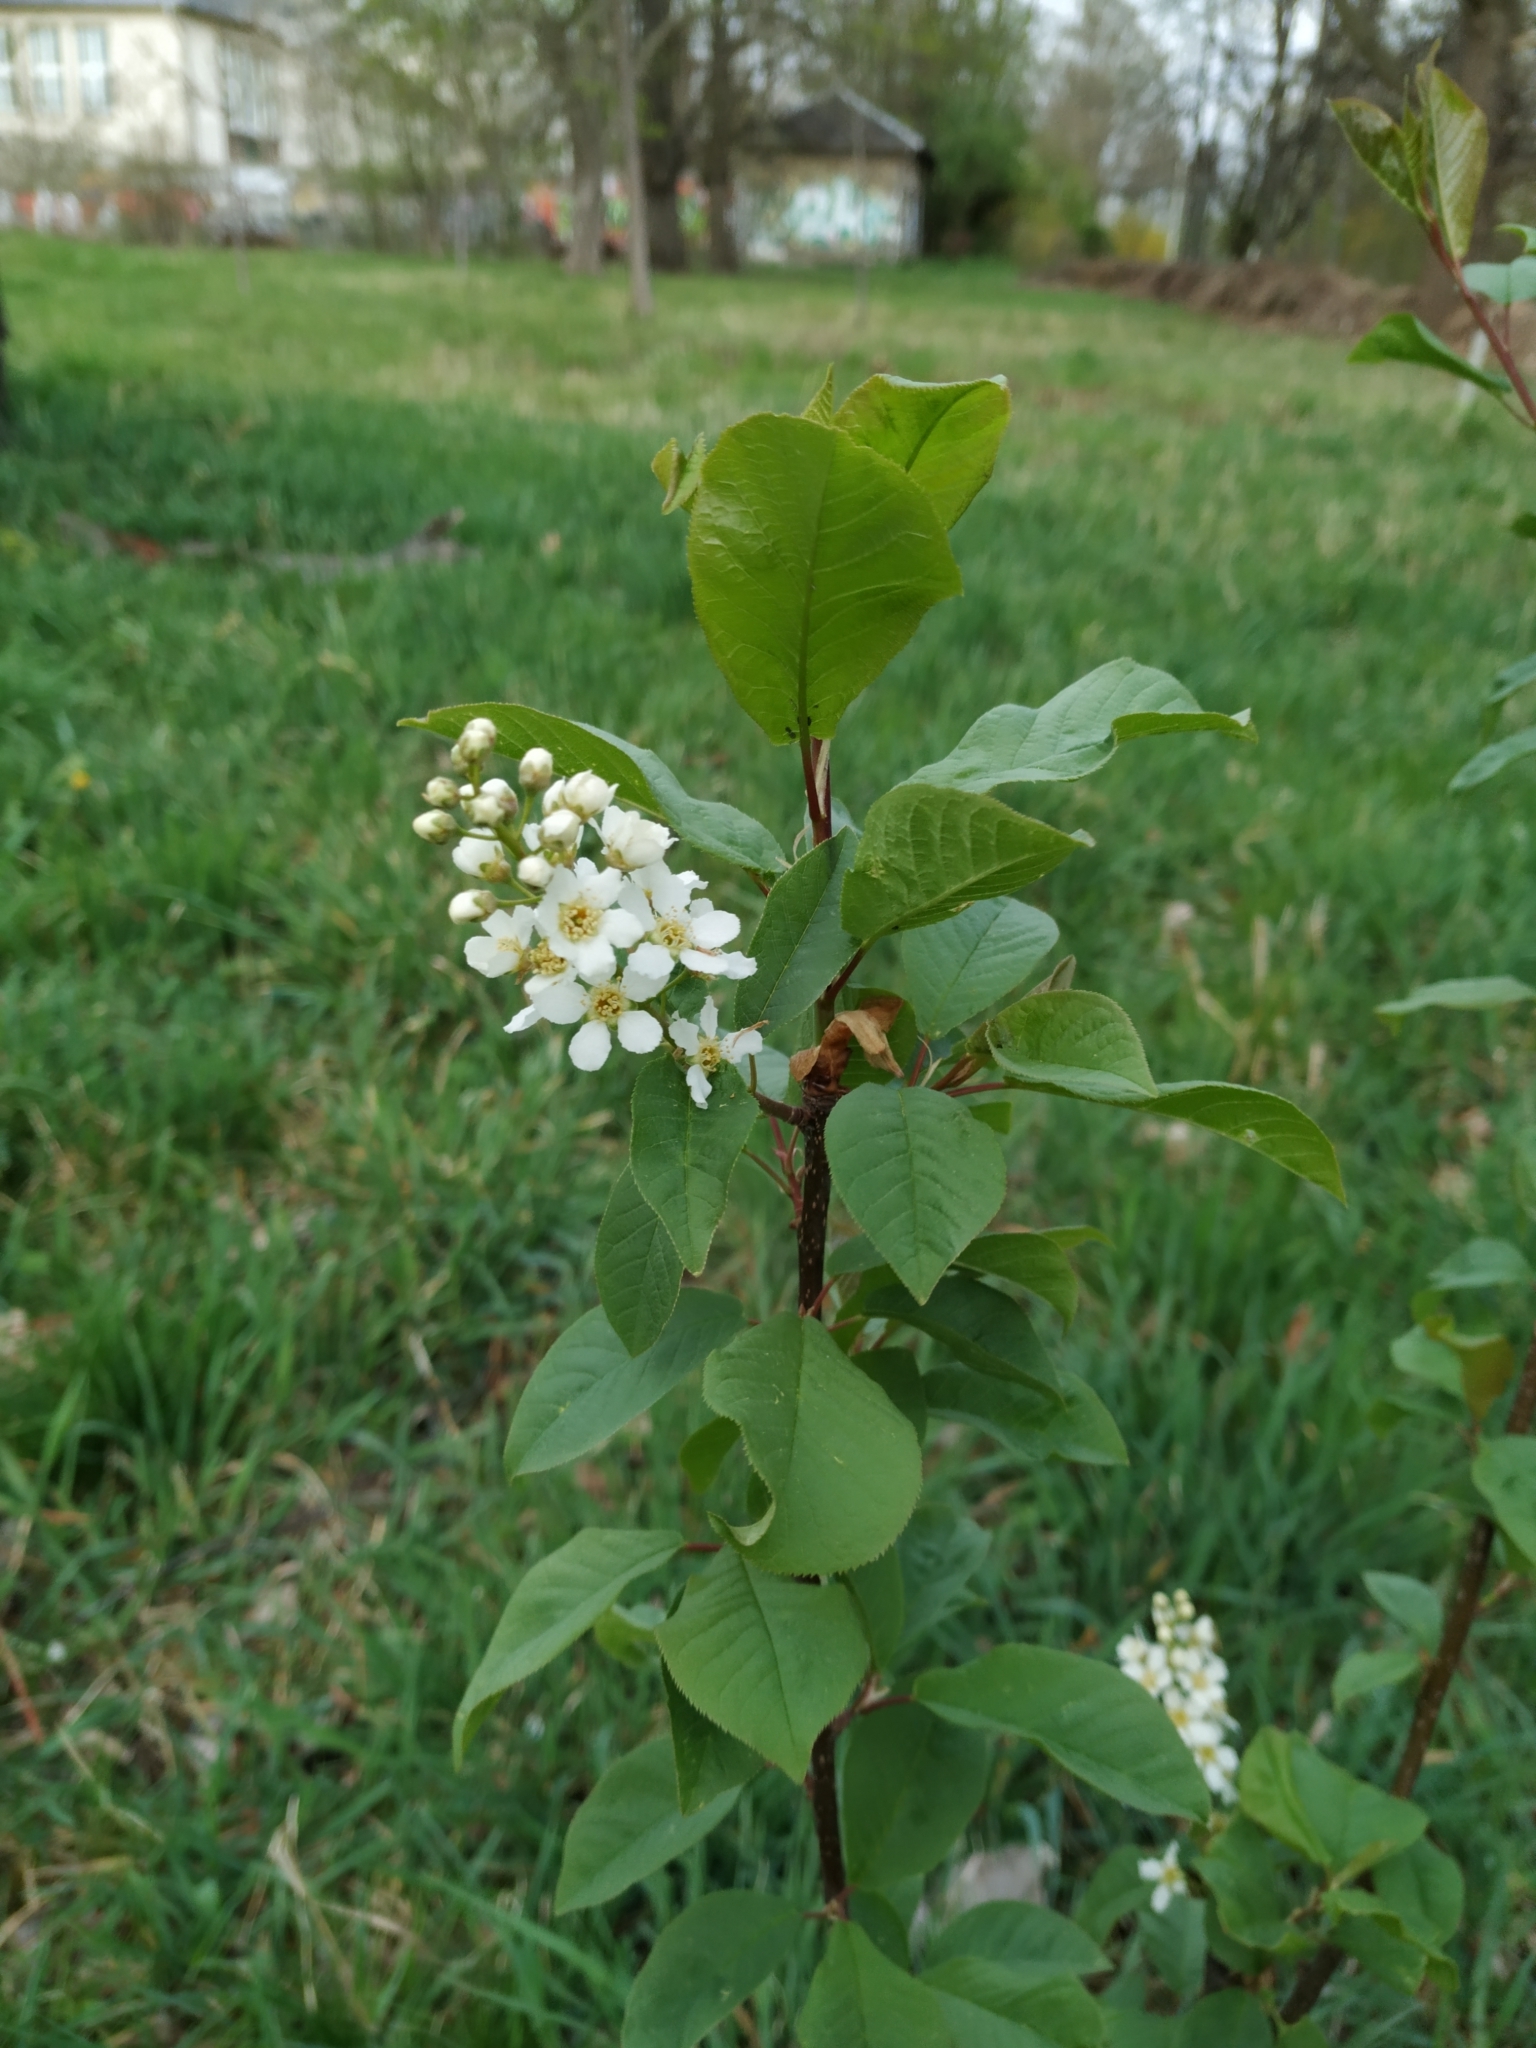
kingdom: Plantae
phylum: Tracheophyta
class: Magnoliopsida
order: Rosales
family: Rosaceae
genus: Prunus
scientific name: Prunus padus
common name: Bird cherry
